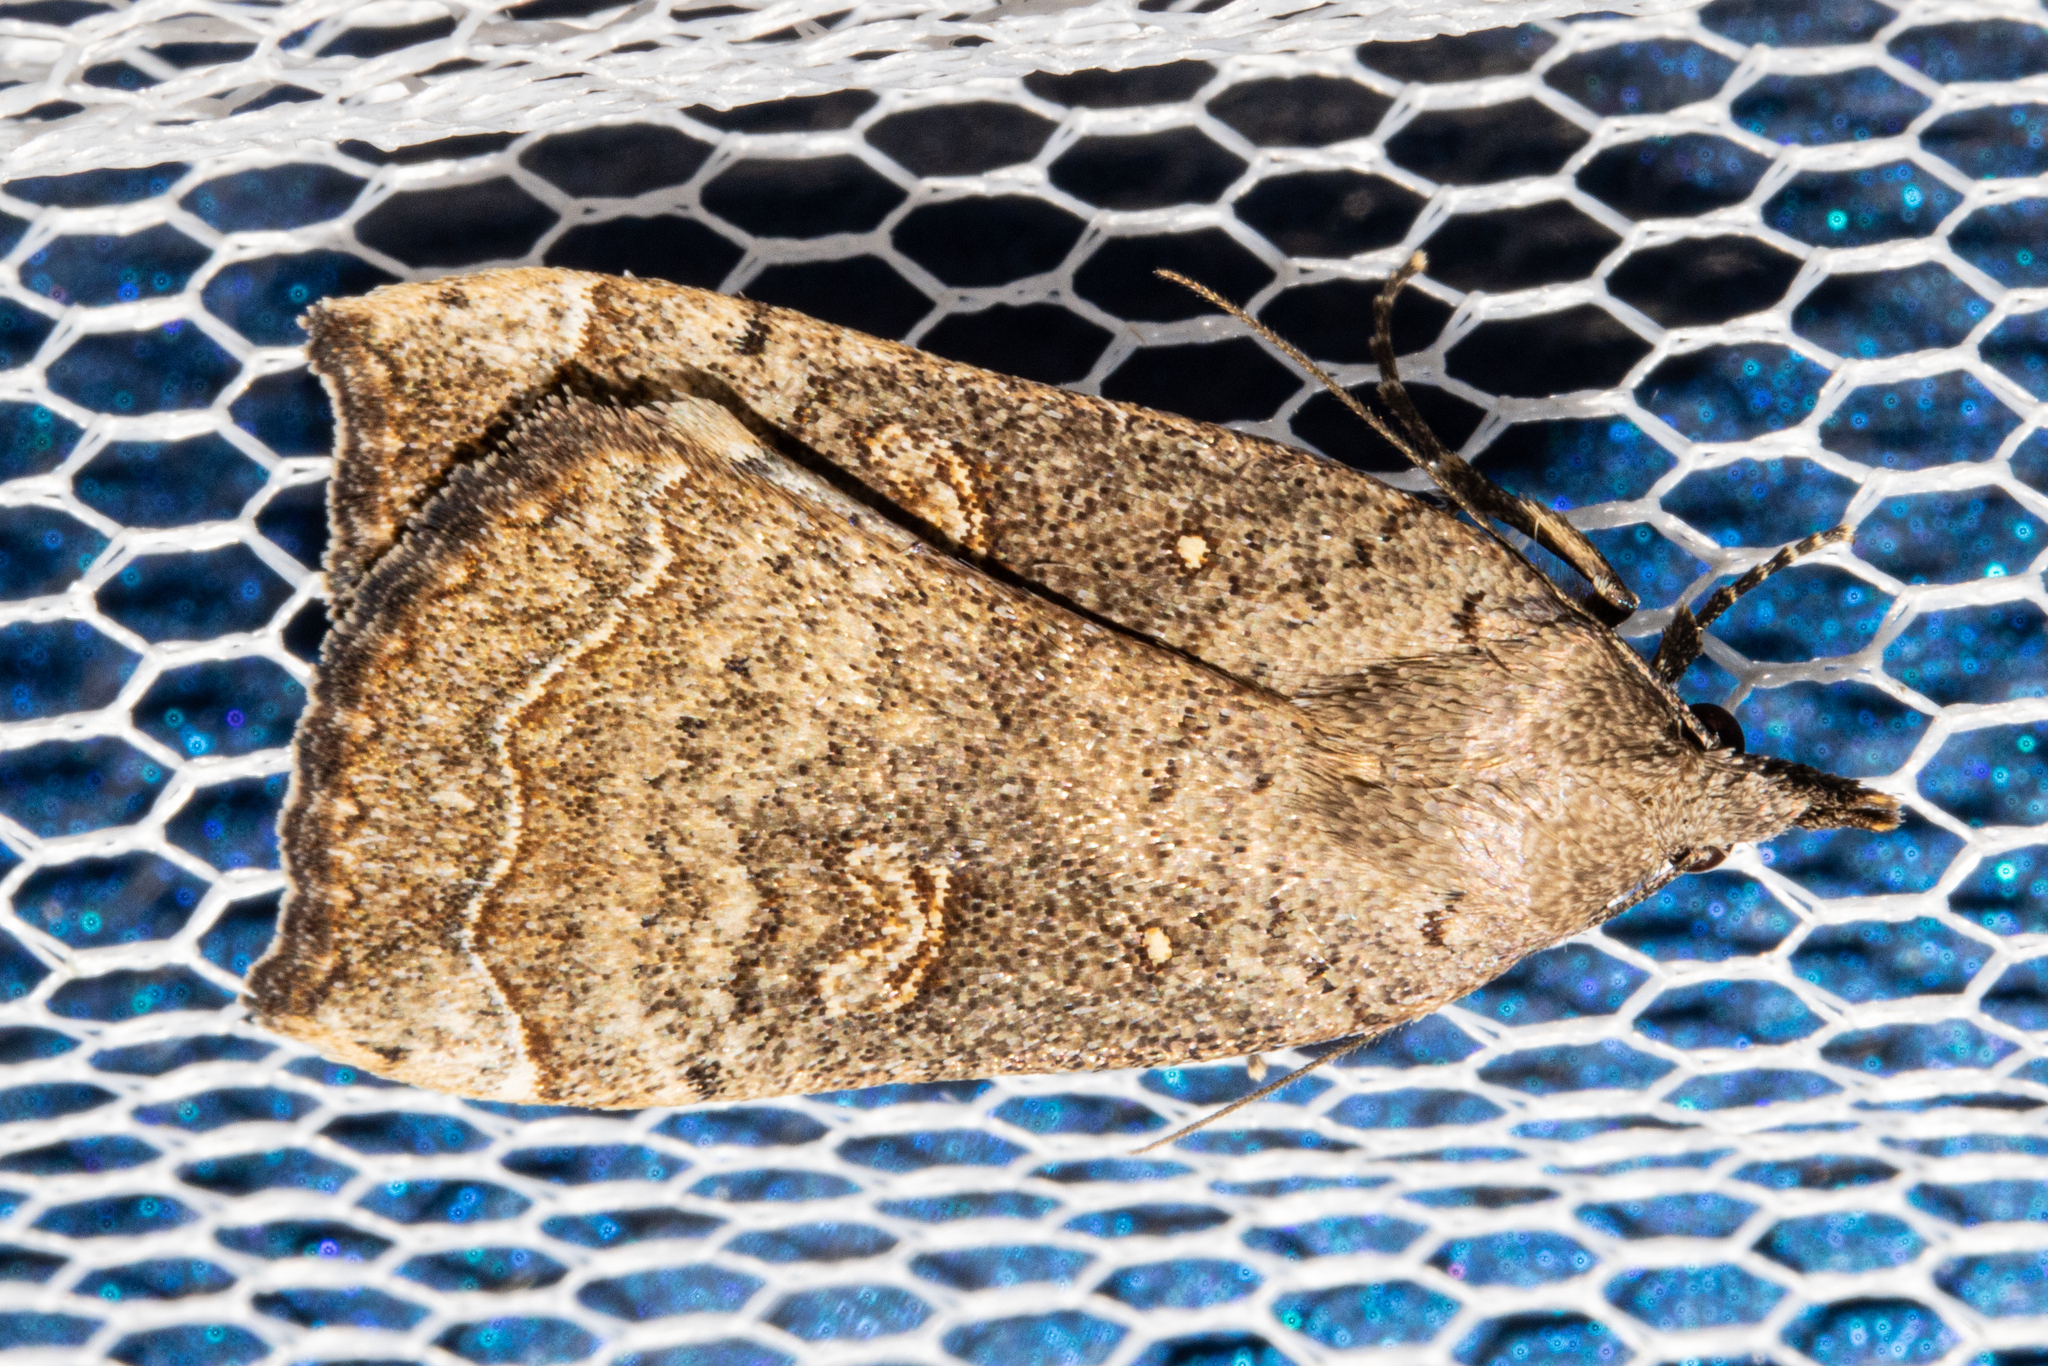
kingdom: Animalia
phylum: Arthropoda
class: Insecta
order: Lepidoptera
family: Erebidae
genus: Rhapsa
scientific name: Rhapsa scotosialis
